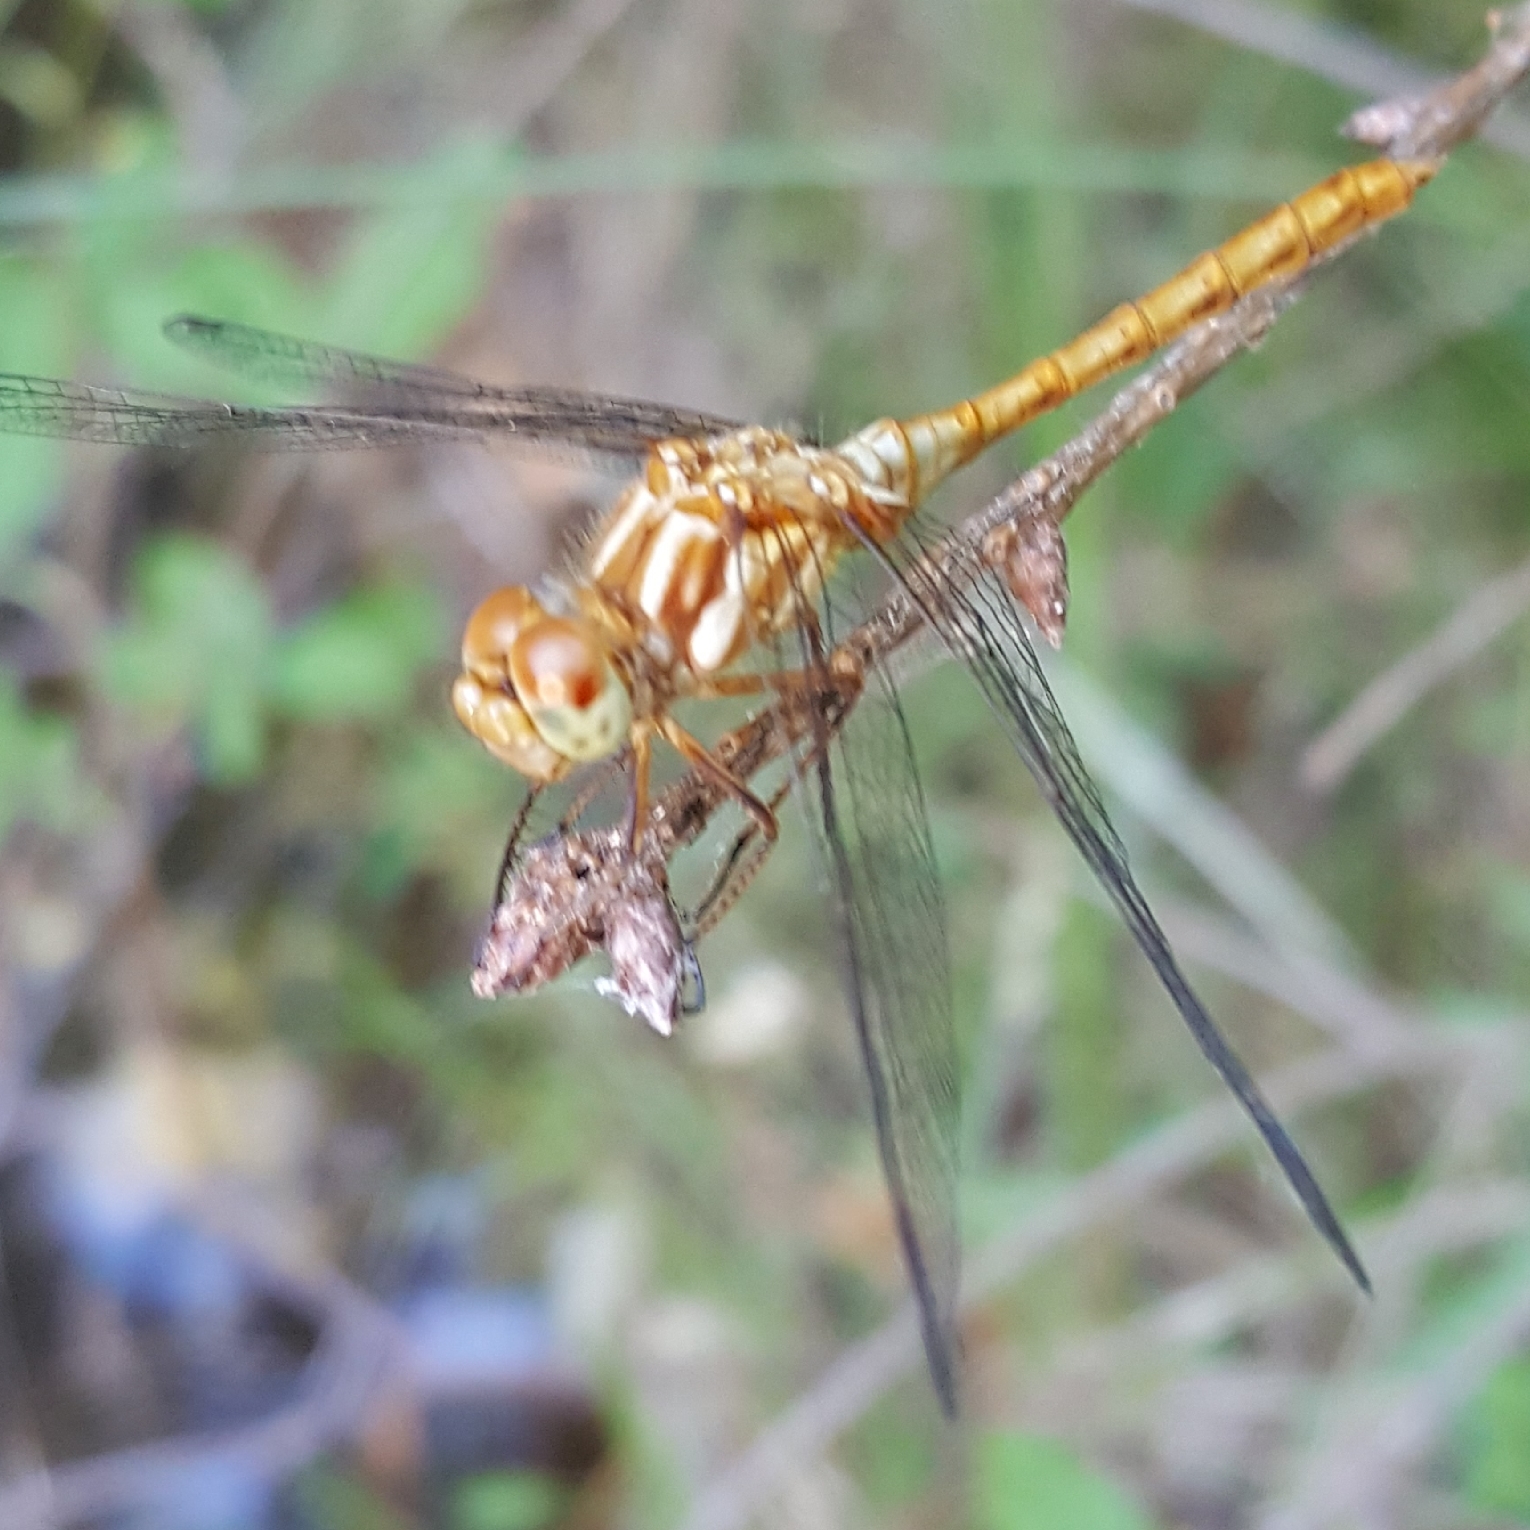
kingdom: Animalia
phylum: Arthropoda
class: Insecta
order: Odonata
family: Libellulidae
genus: Sympetrum
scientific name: Sympetrum pallipes
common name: Striped meadowhawk
